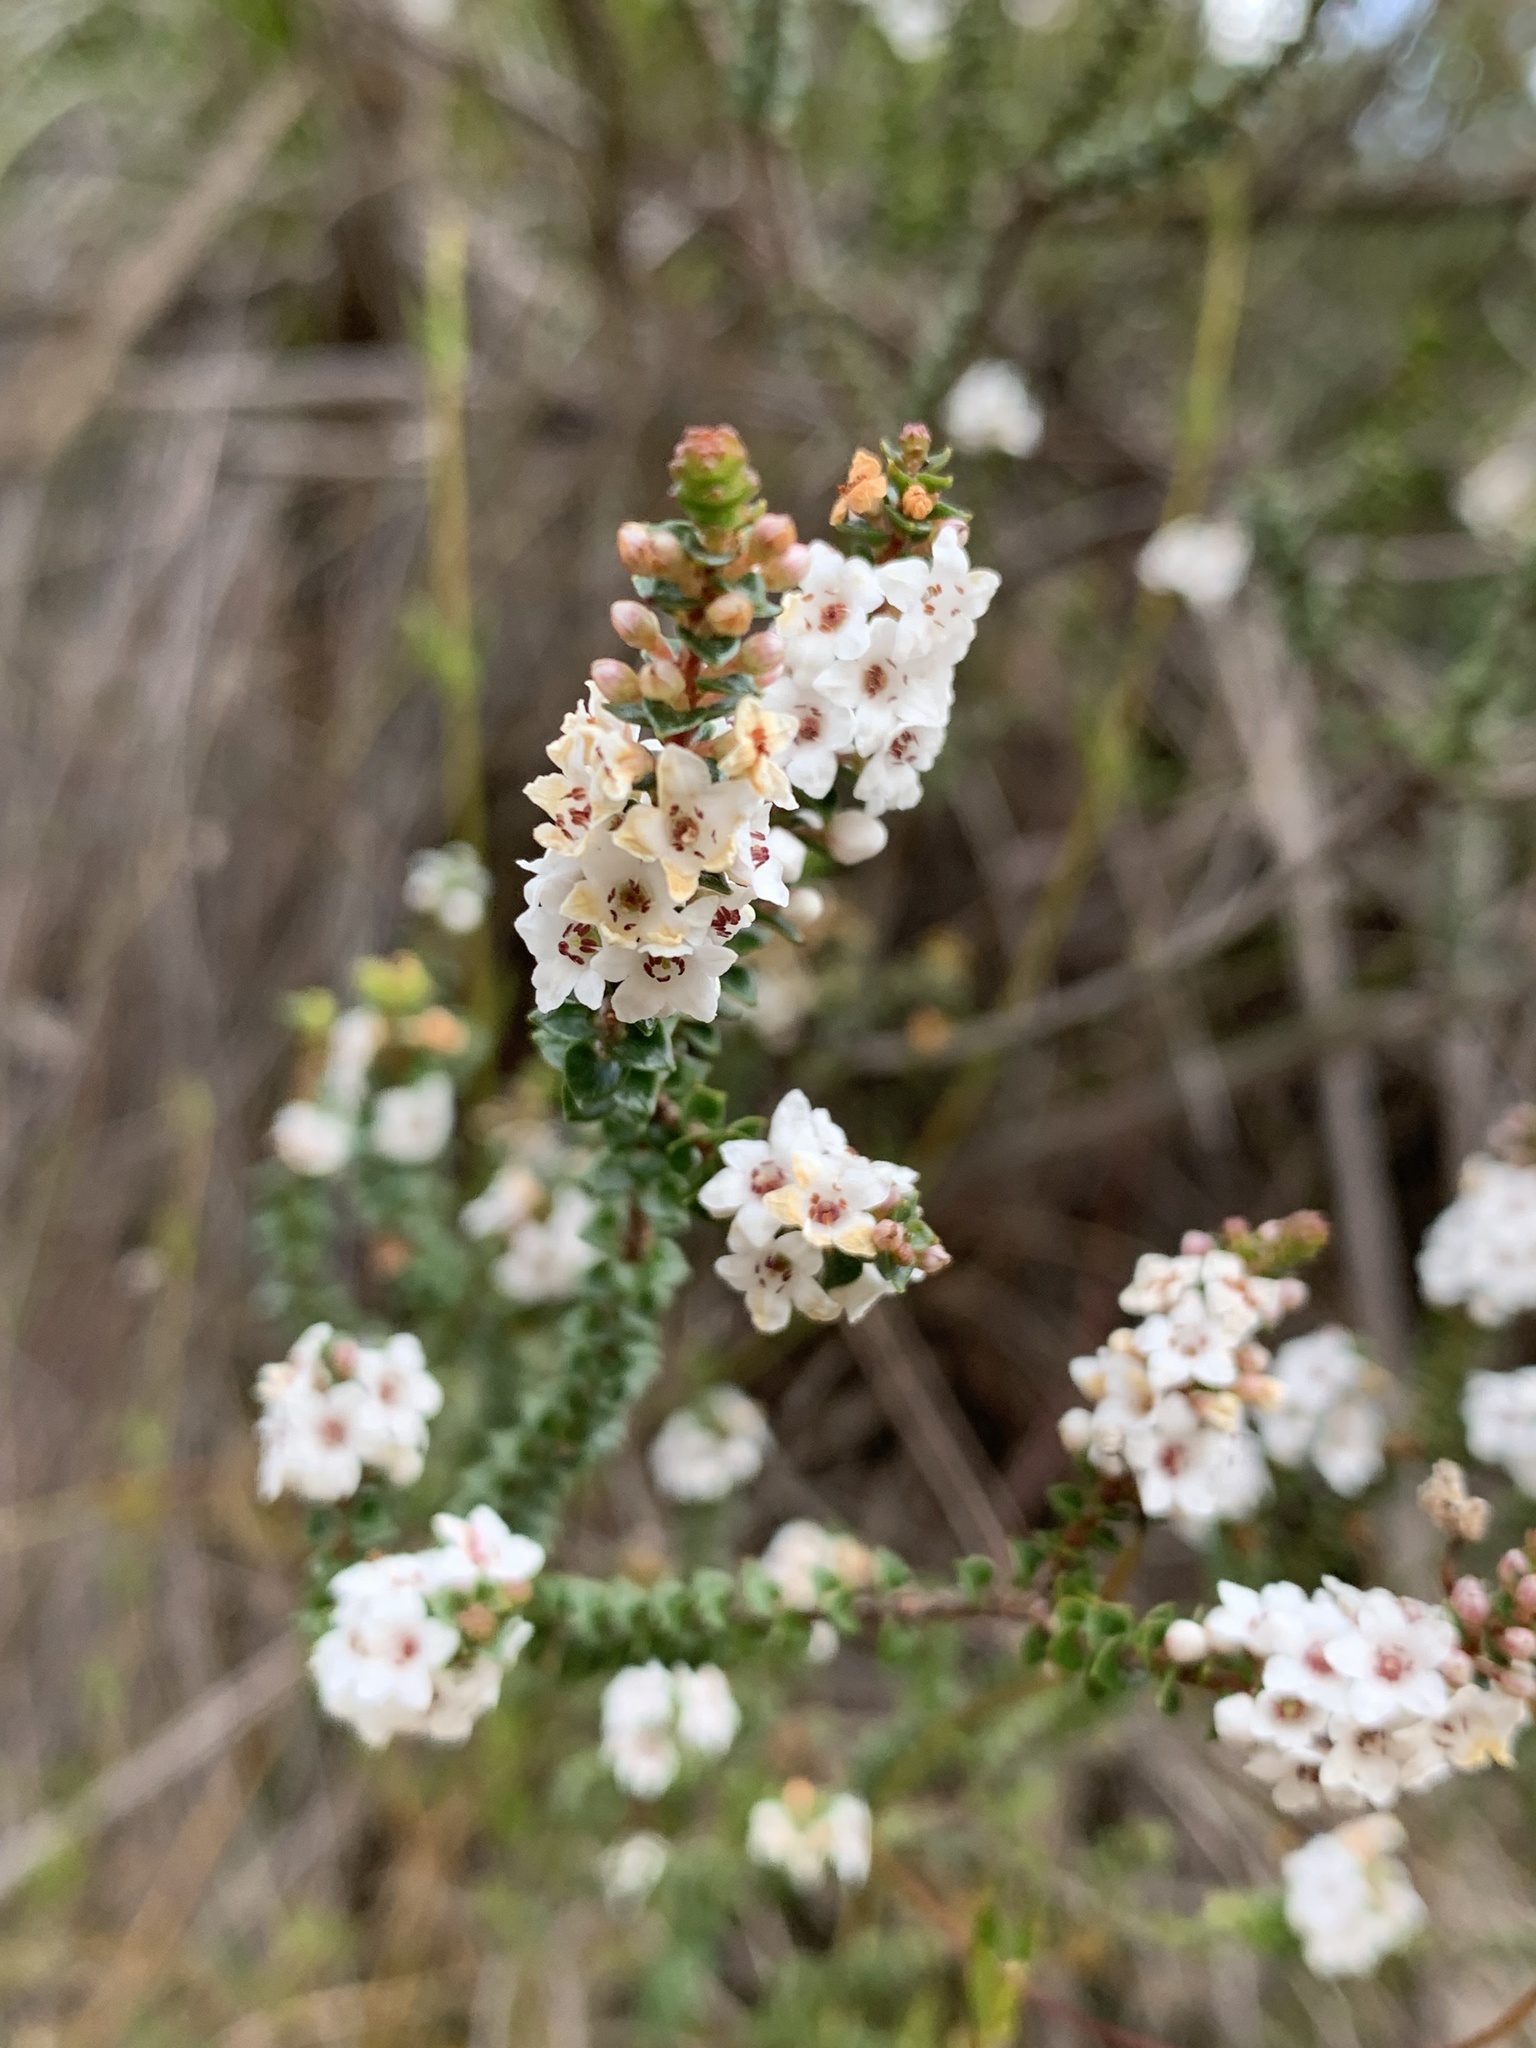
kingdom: Plantae
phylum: Tracheophyta
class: Magnoliopsida
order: Ericales
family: Ericaceae
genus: Epacris
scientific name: Epacris microphylla
